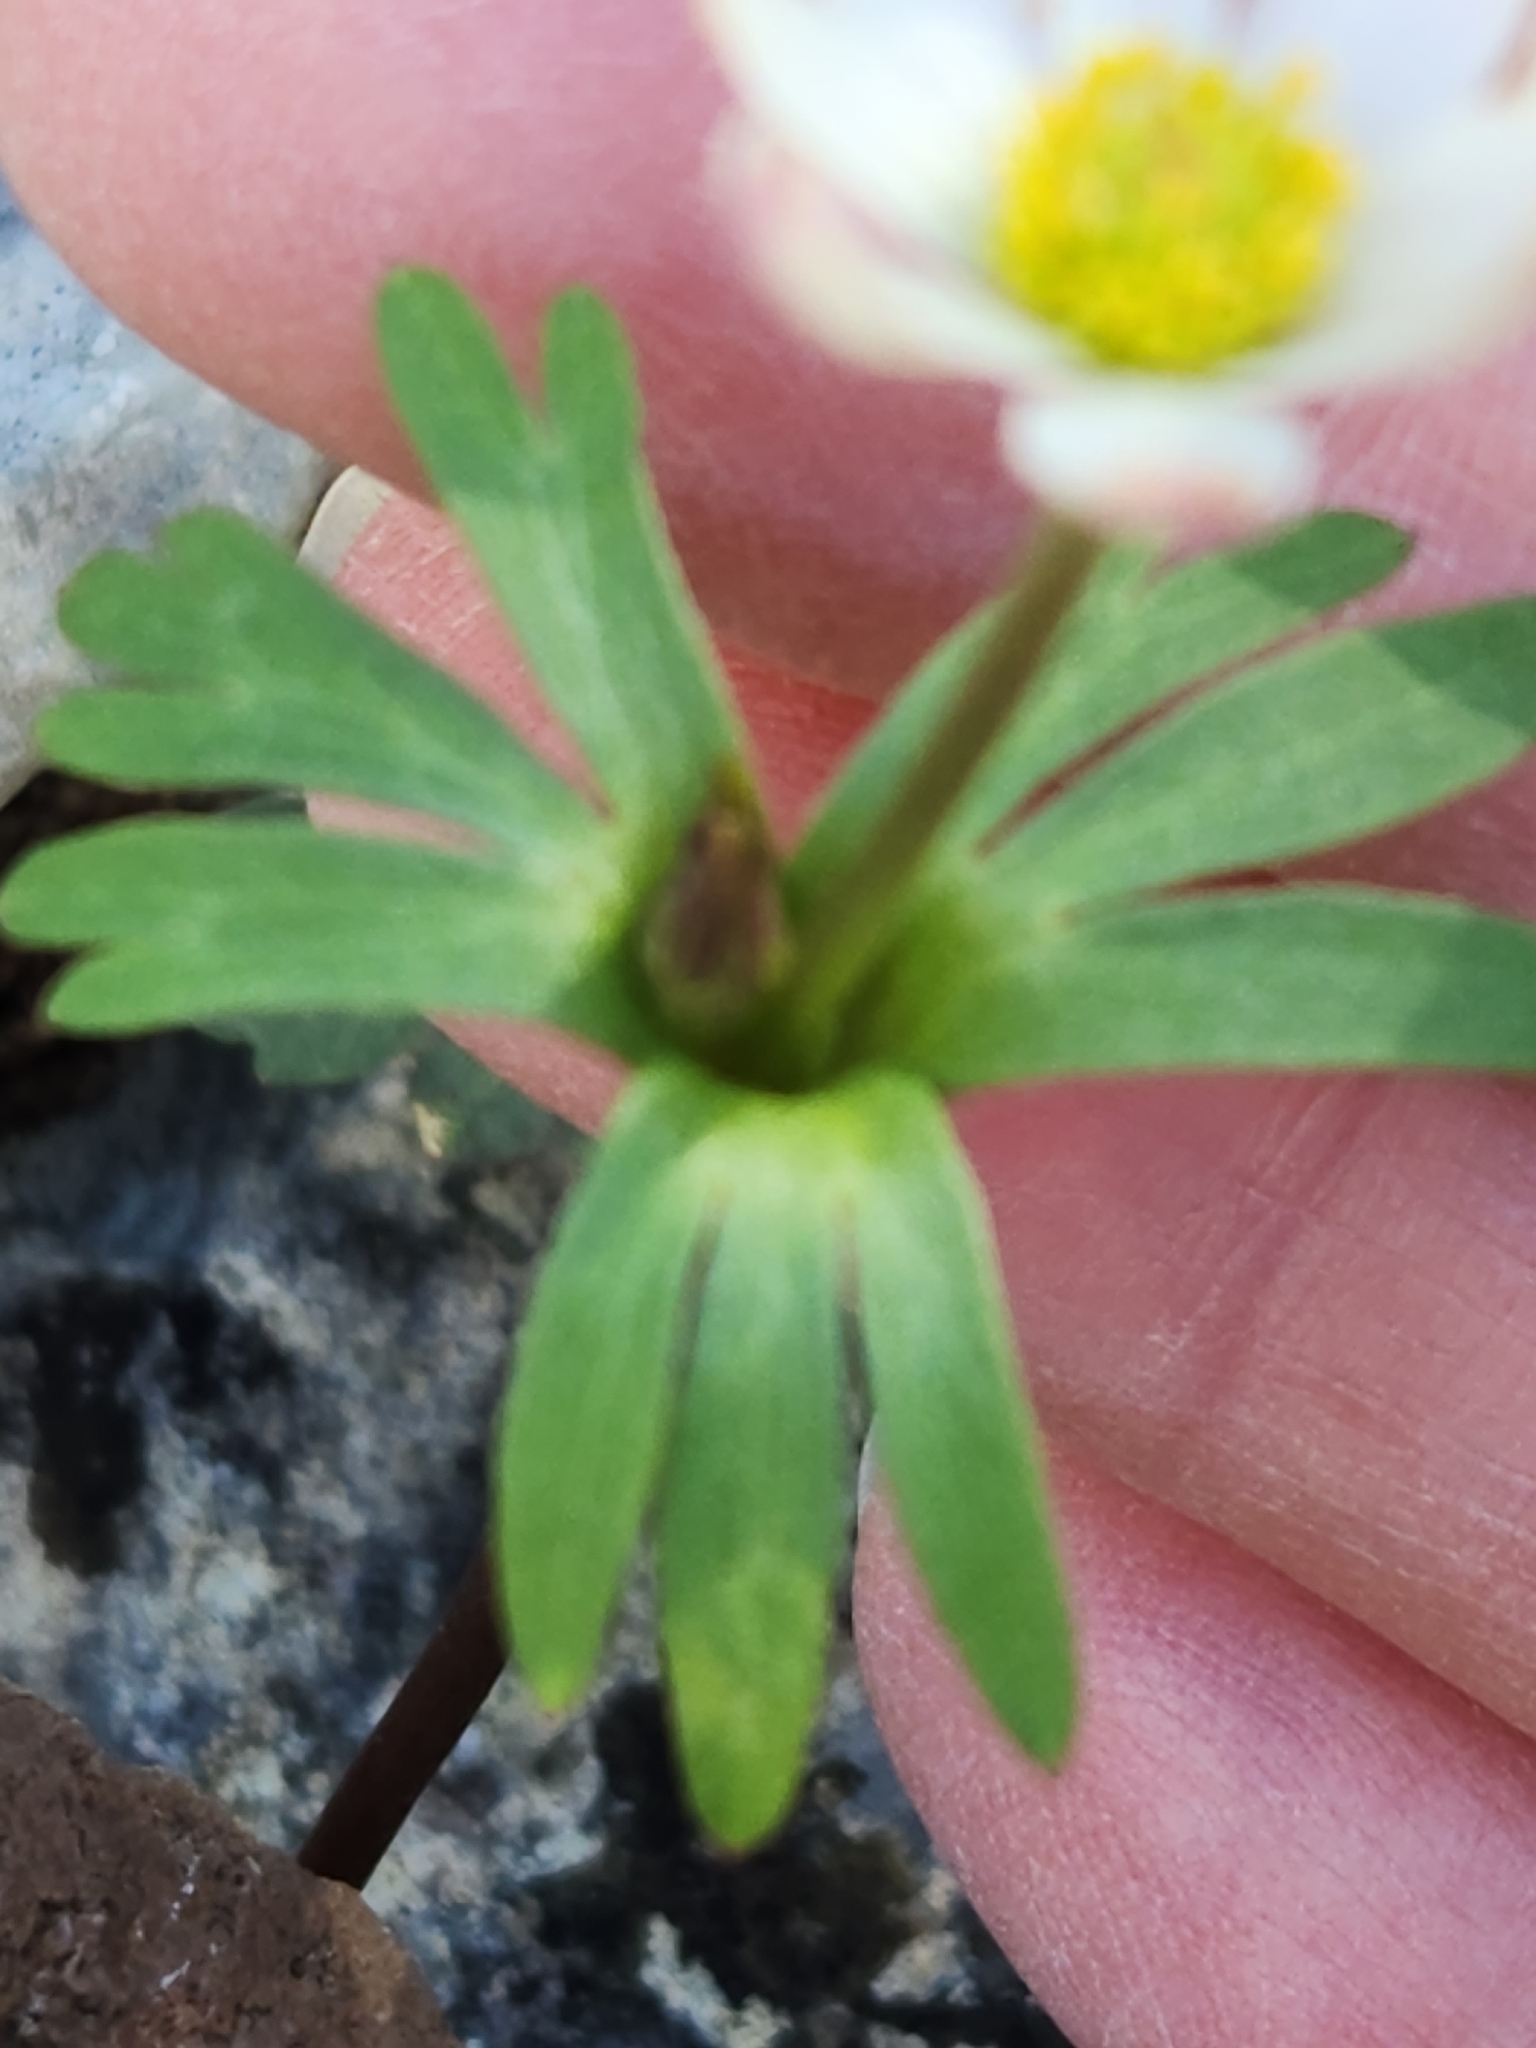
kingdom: Plantae
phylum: Tracheophyta
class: Magnoliopsida
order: Ranunculales
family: Ranunculaceae
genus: Anemone
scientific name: Anemone edwardsiana
